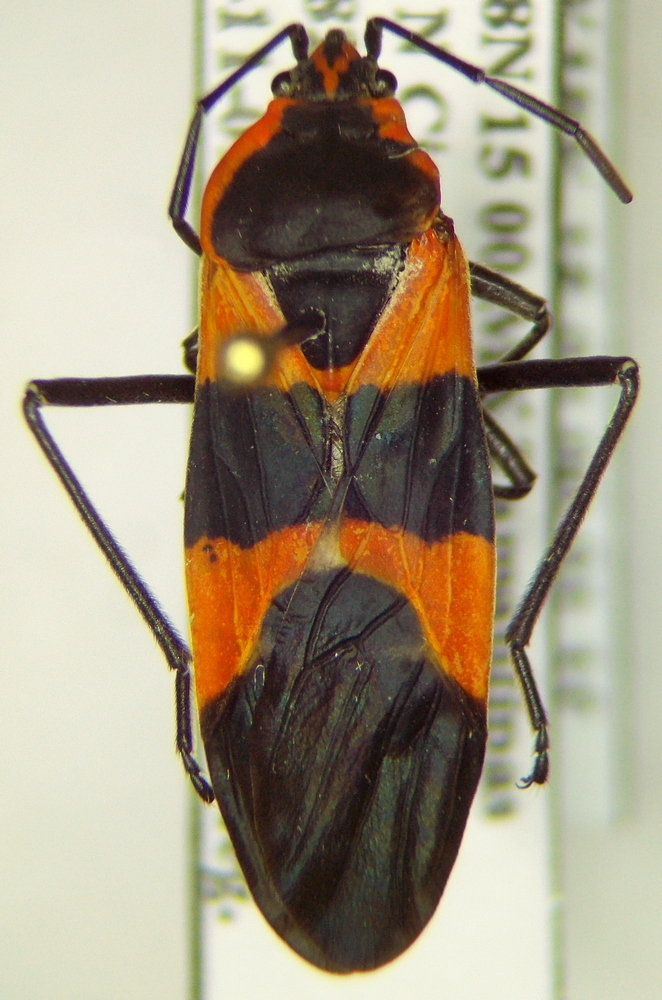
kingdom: Animalia
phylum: Arthropoda
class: Insecta
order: Hemiptera
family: Lygaeidae
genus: Oncopeltus
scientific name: Oncopeltus fasciatus
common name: Large milkweed bug
